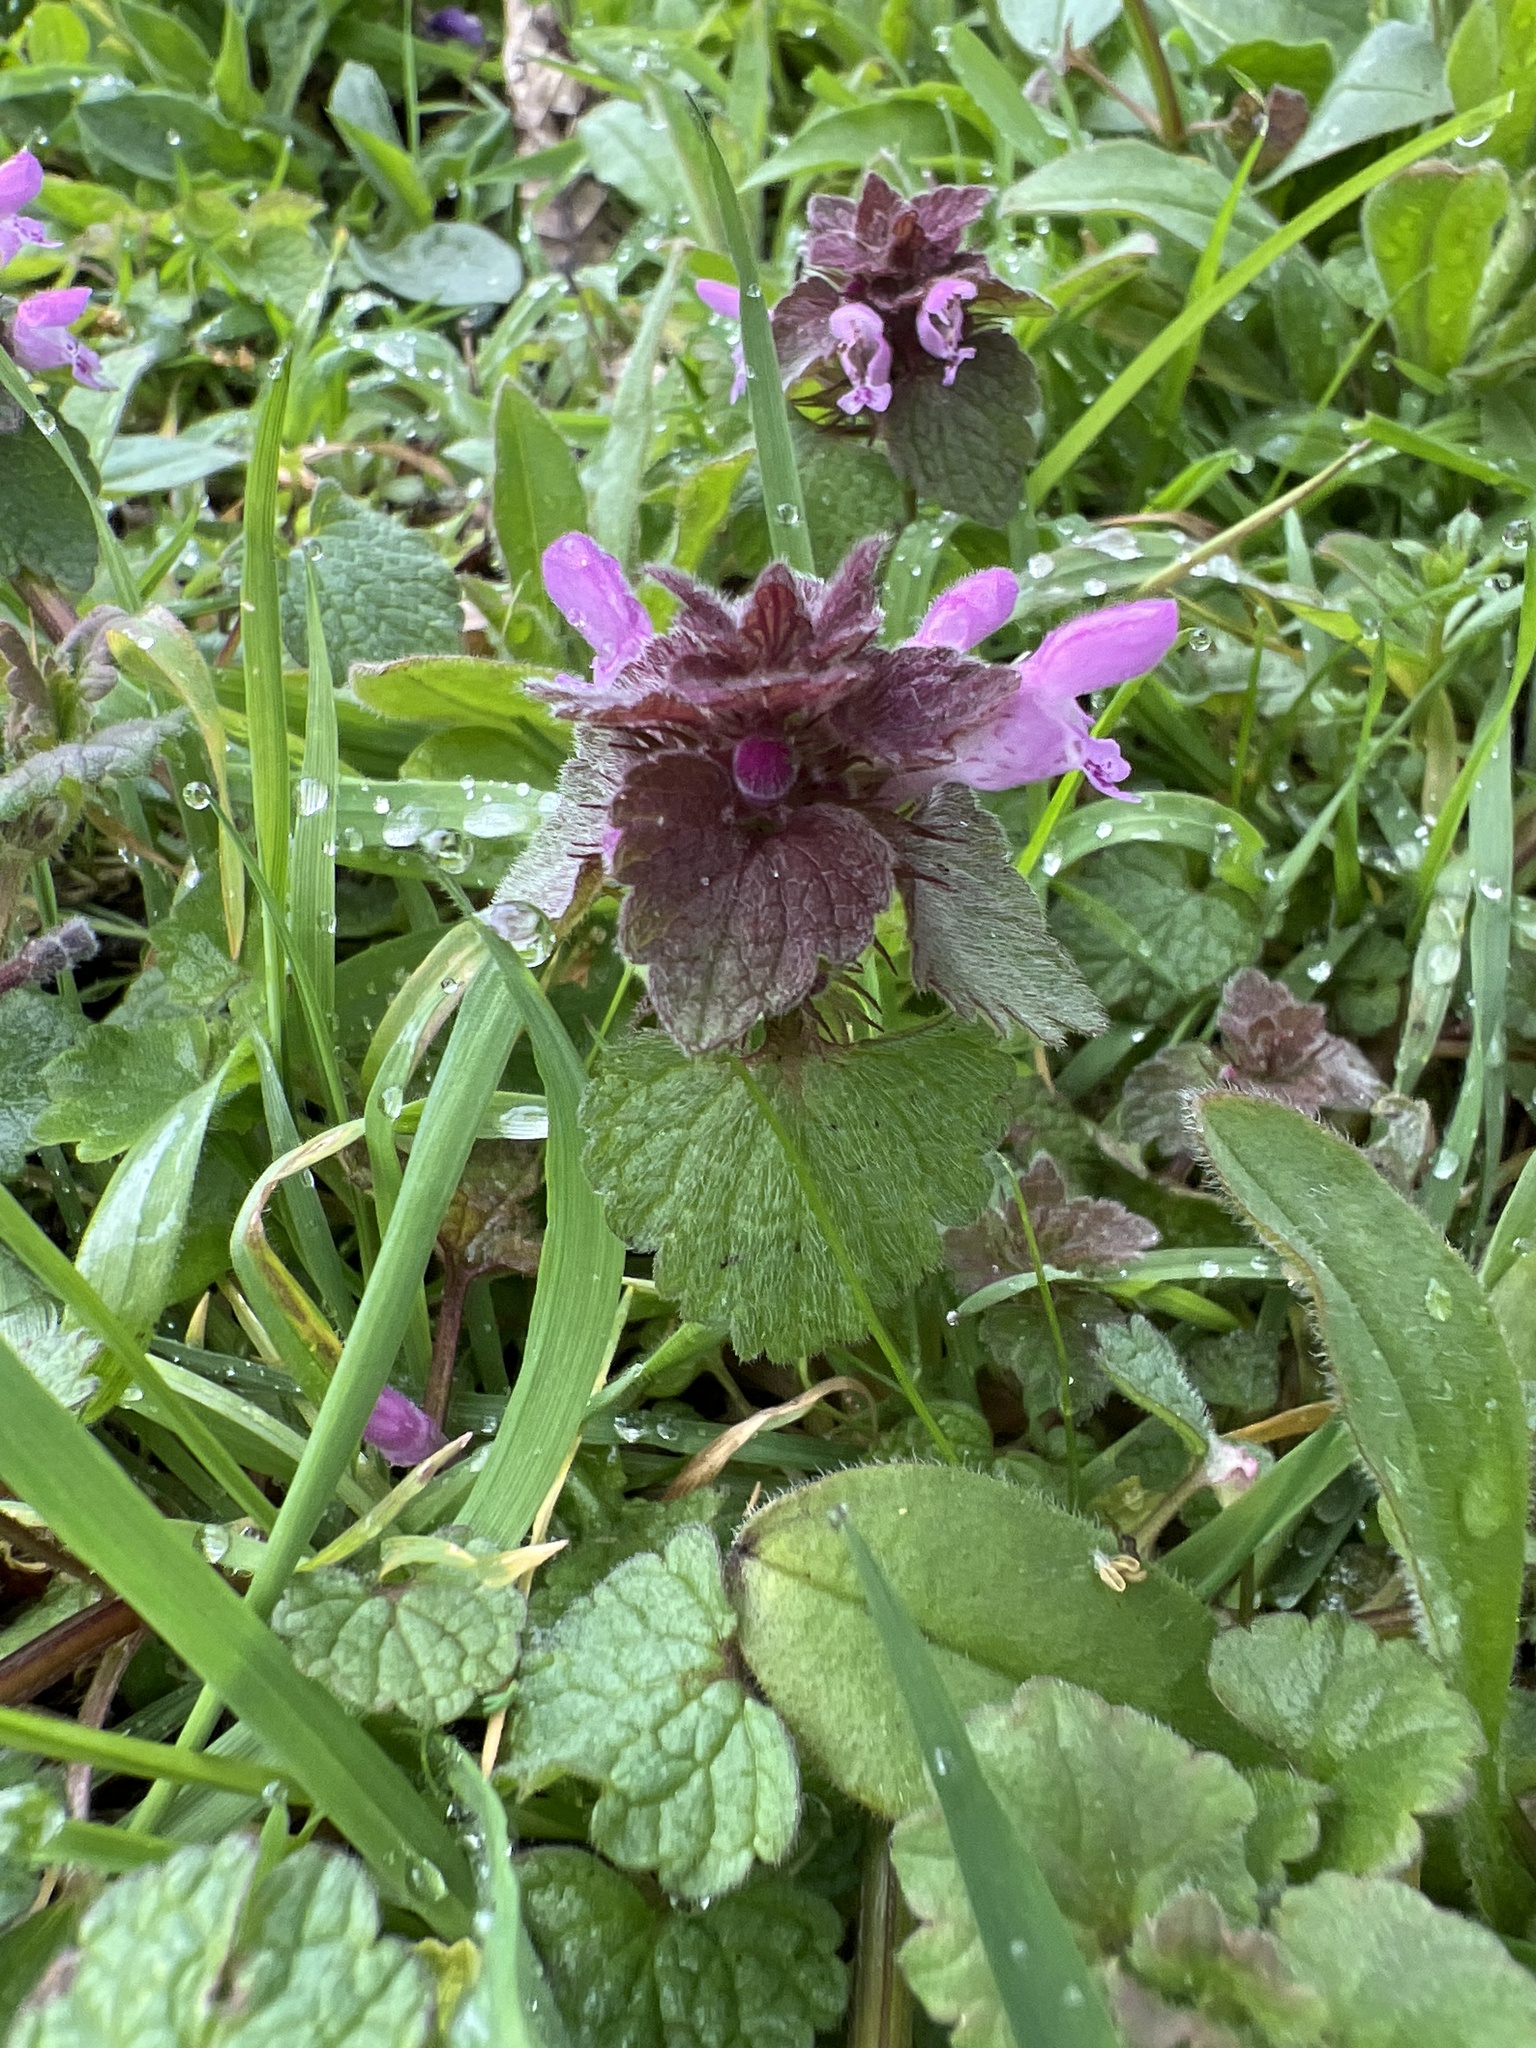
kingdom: Plantae
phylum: Tracheophyta
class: Magnoliopsida
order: Lamiales
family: Lamiaceae
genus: Lamium
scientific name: Lamium purpureum
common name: Red dead-nettle
